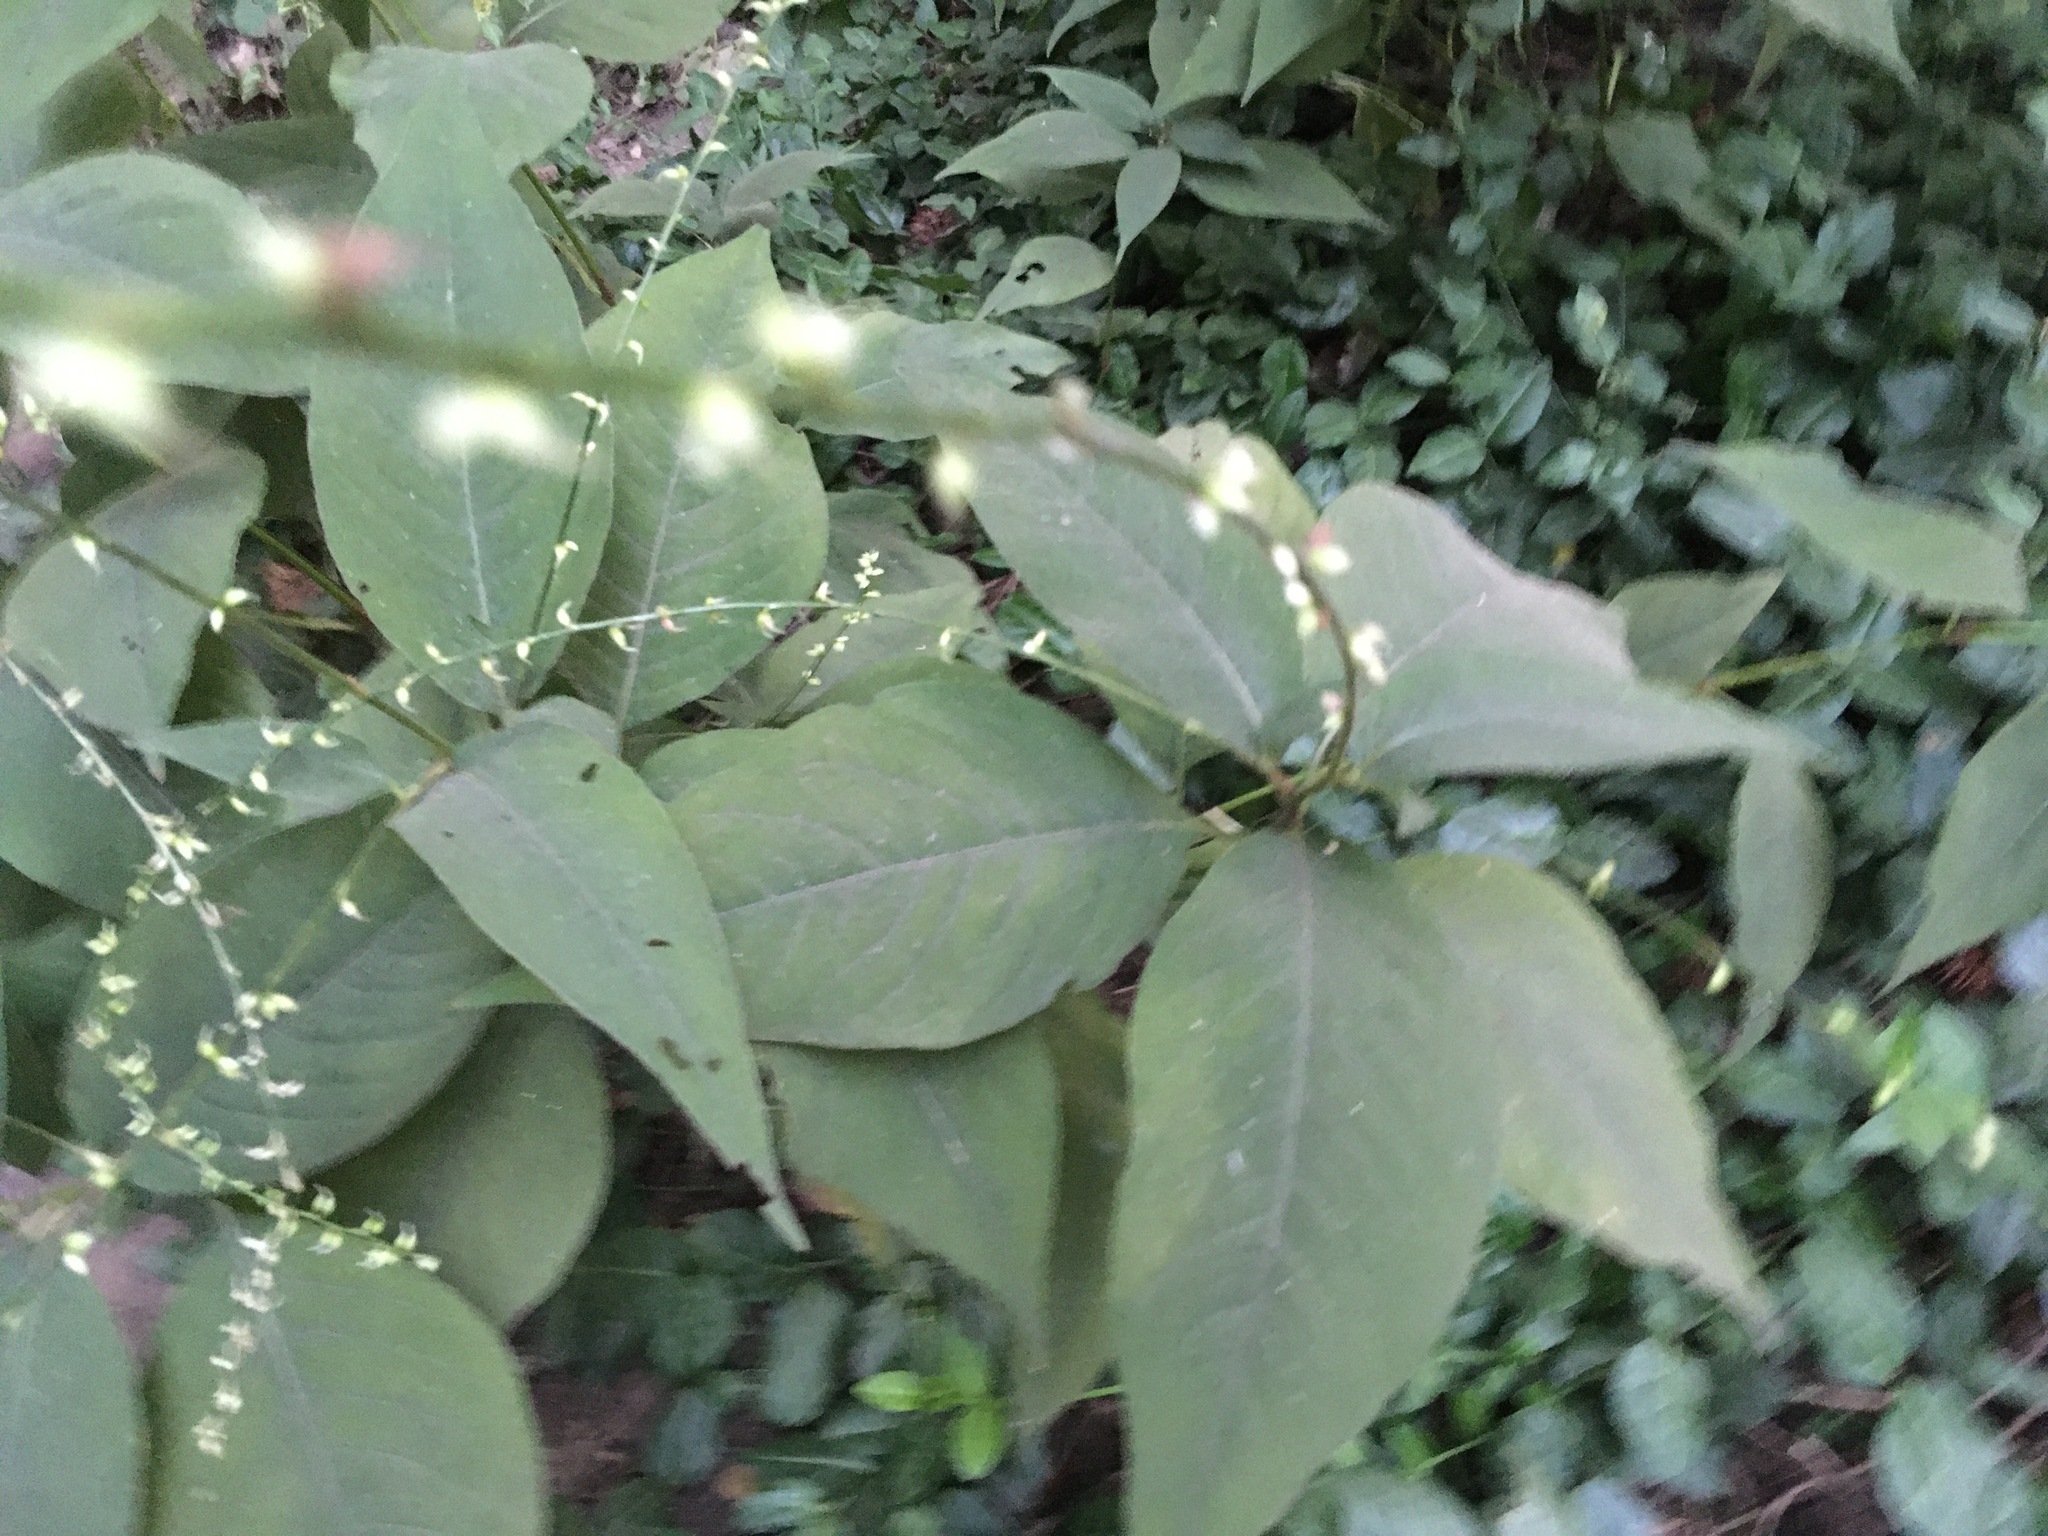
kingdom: Plantae
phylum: Tracheophyta
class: Magnoliopsida
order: Caryophyllales
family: Polygonaceae
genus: Persicaria
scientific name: Persicaria virginiana
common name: Jumpseed
